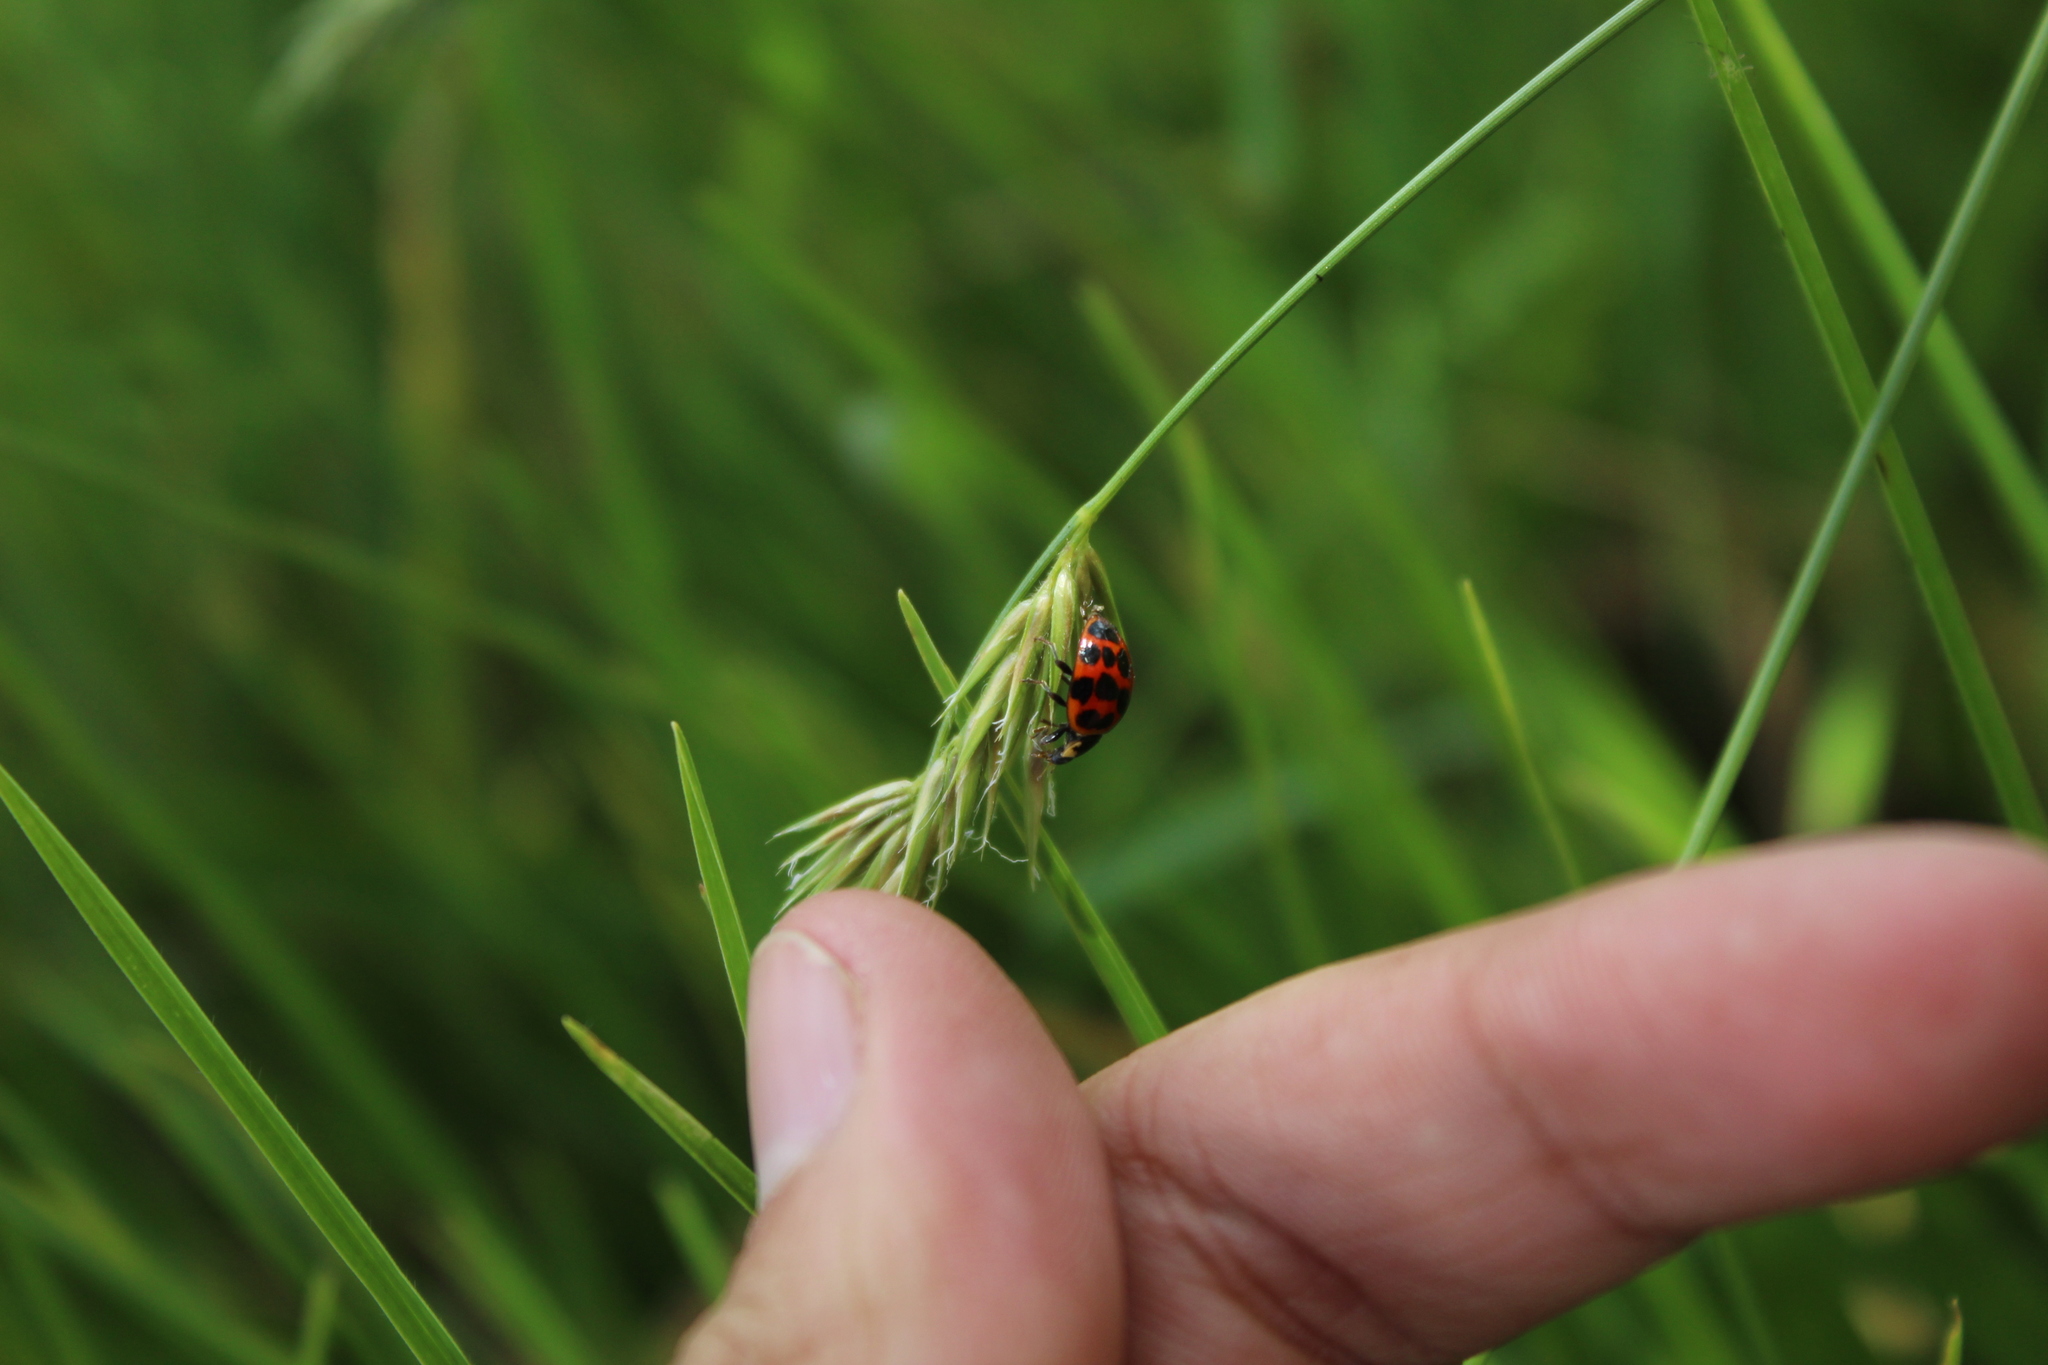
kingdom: Animalia
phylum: Arthropoda
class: Insecta
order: Coleoptera
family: Coccinellidae
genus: Harmonia
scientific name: Harmonia axyridis
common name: Harlequin ladybird
